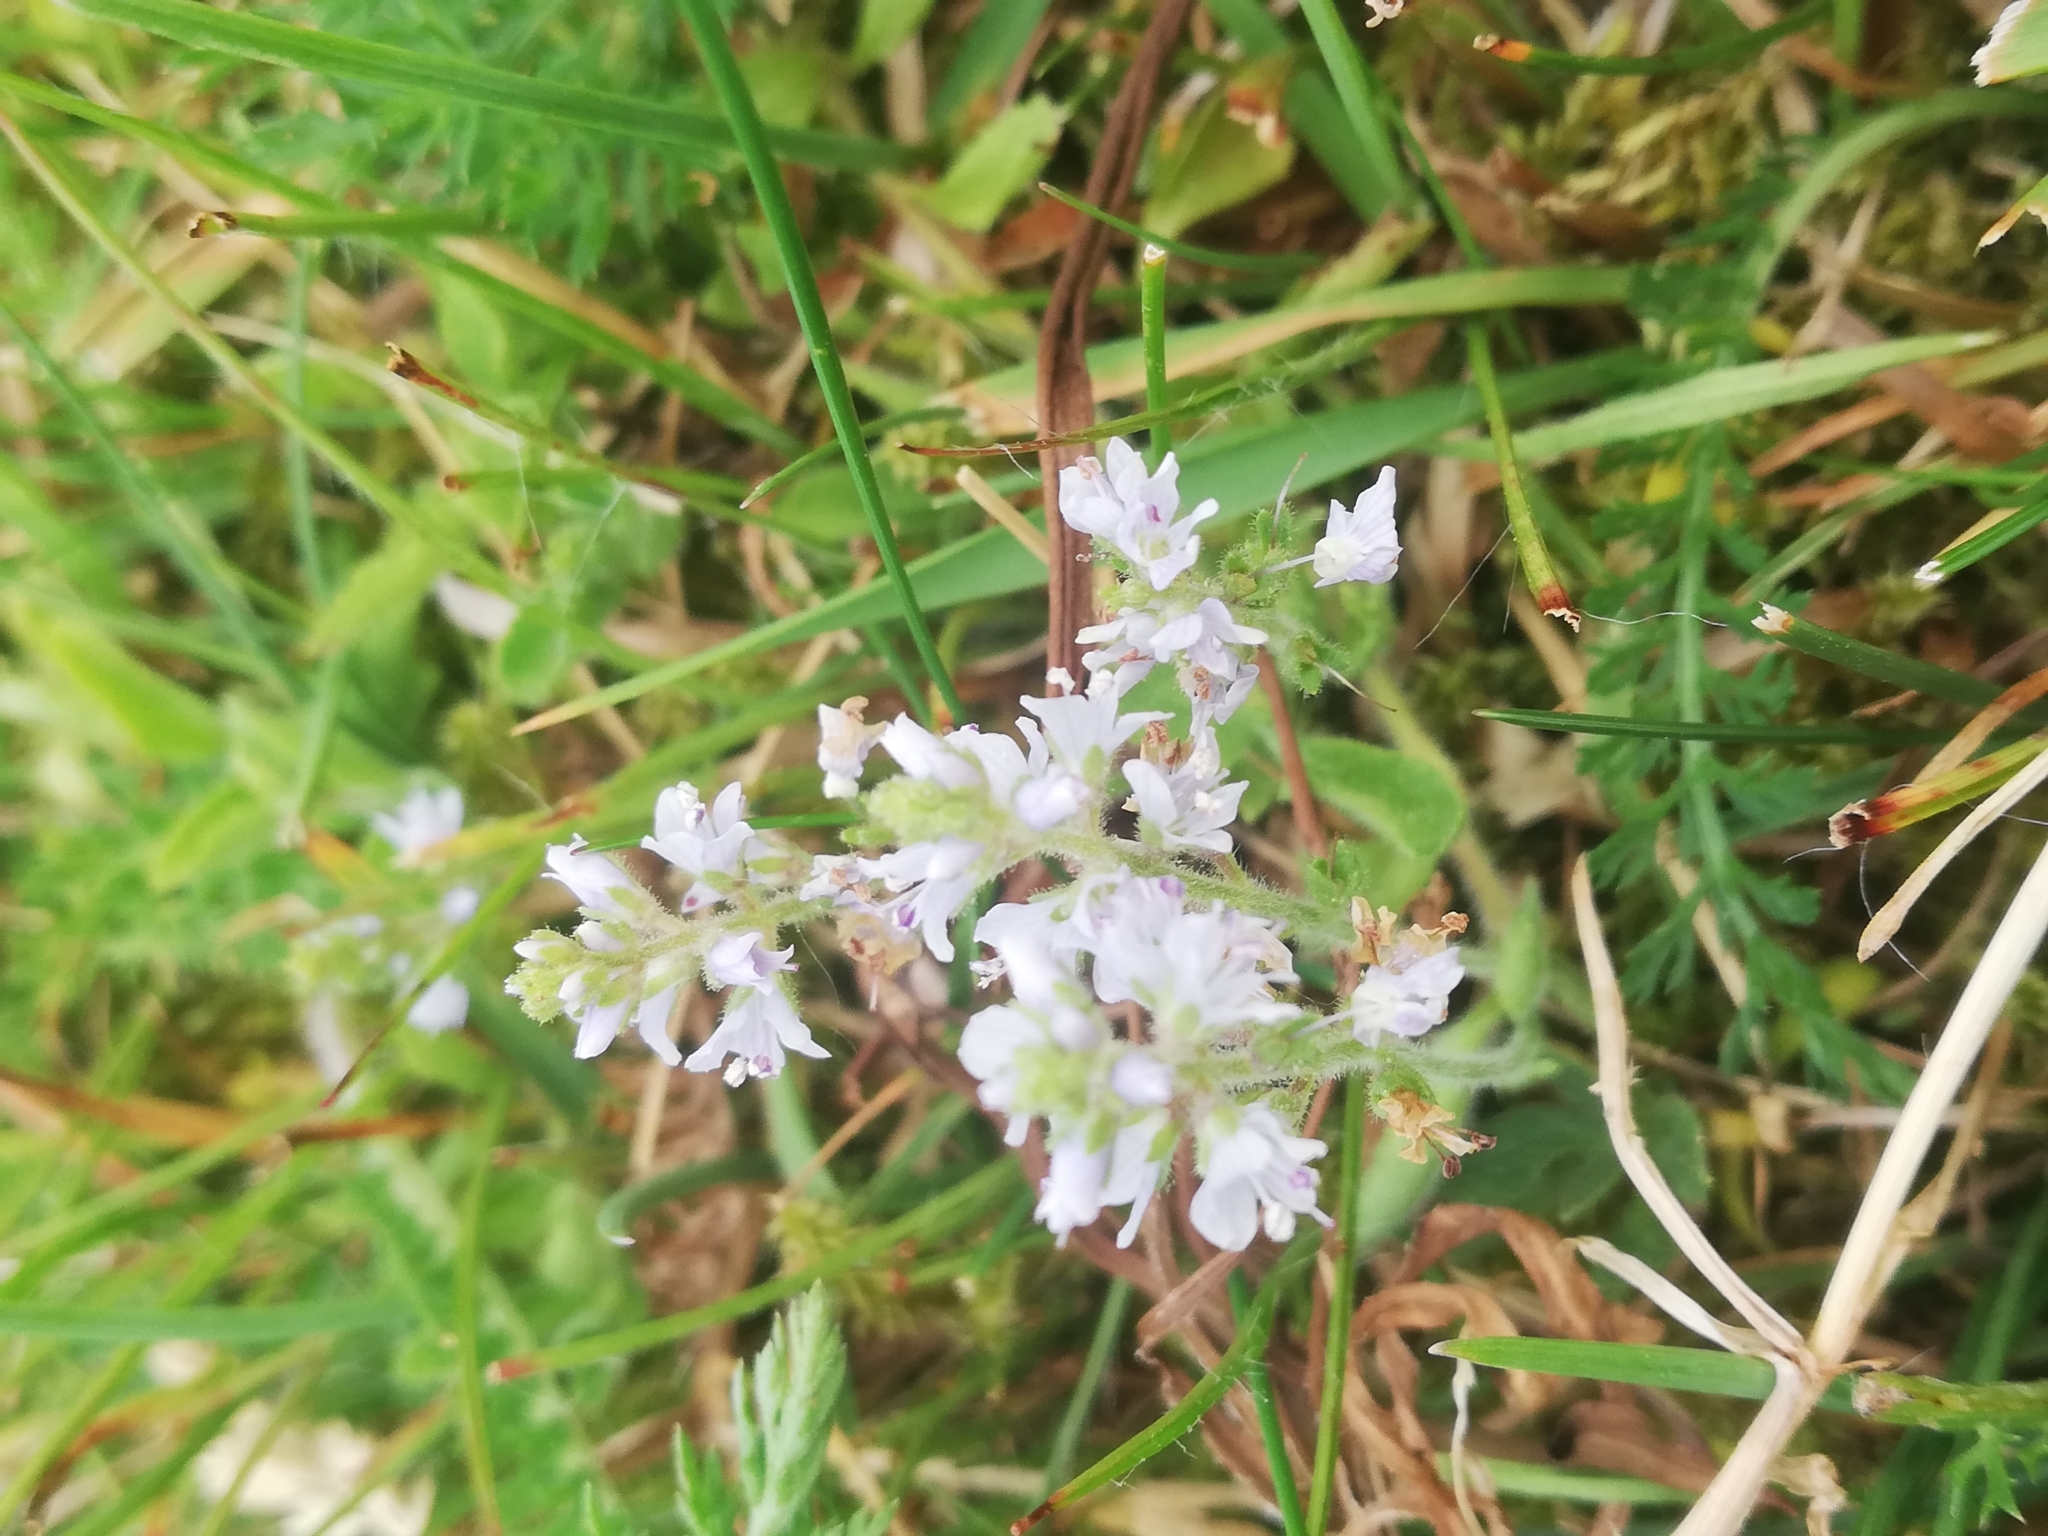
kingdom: Plantae
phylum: Tracheophyta
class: Magnoliopsida
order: Lamiales
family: Plantaginaceae
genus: Veronica
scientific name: Veronica officinalis
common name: Common speedwell
